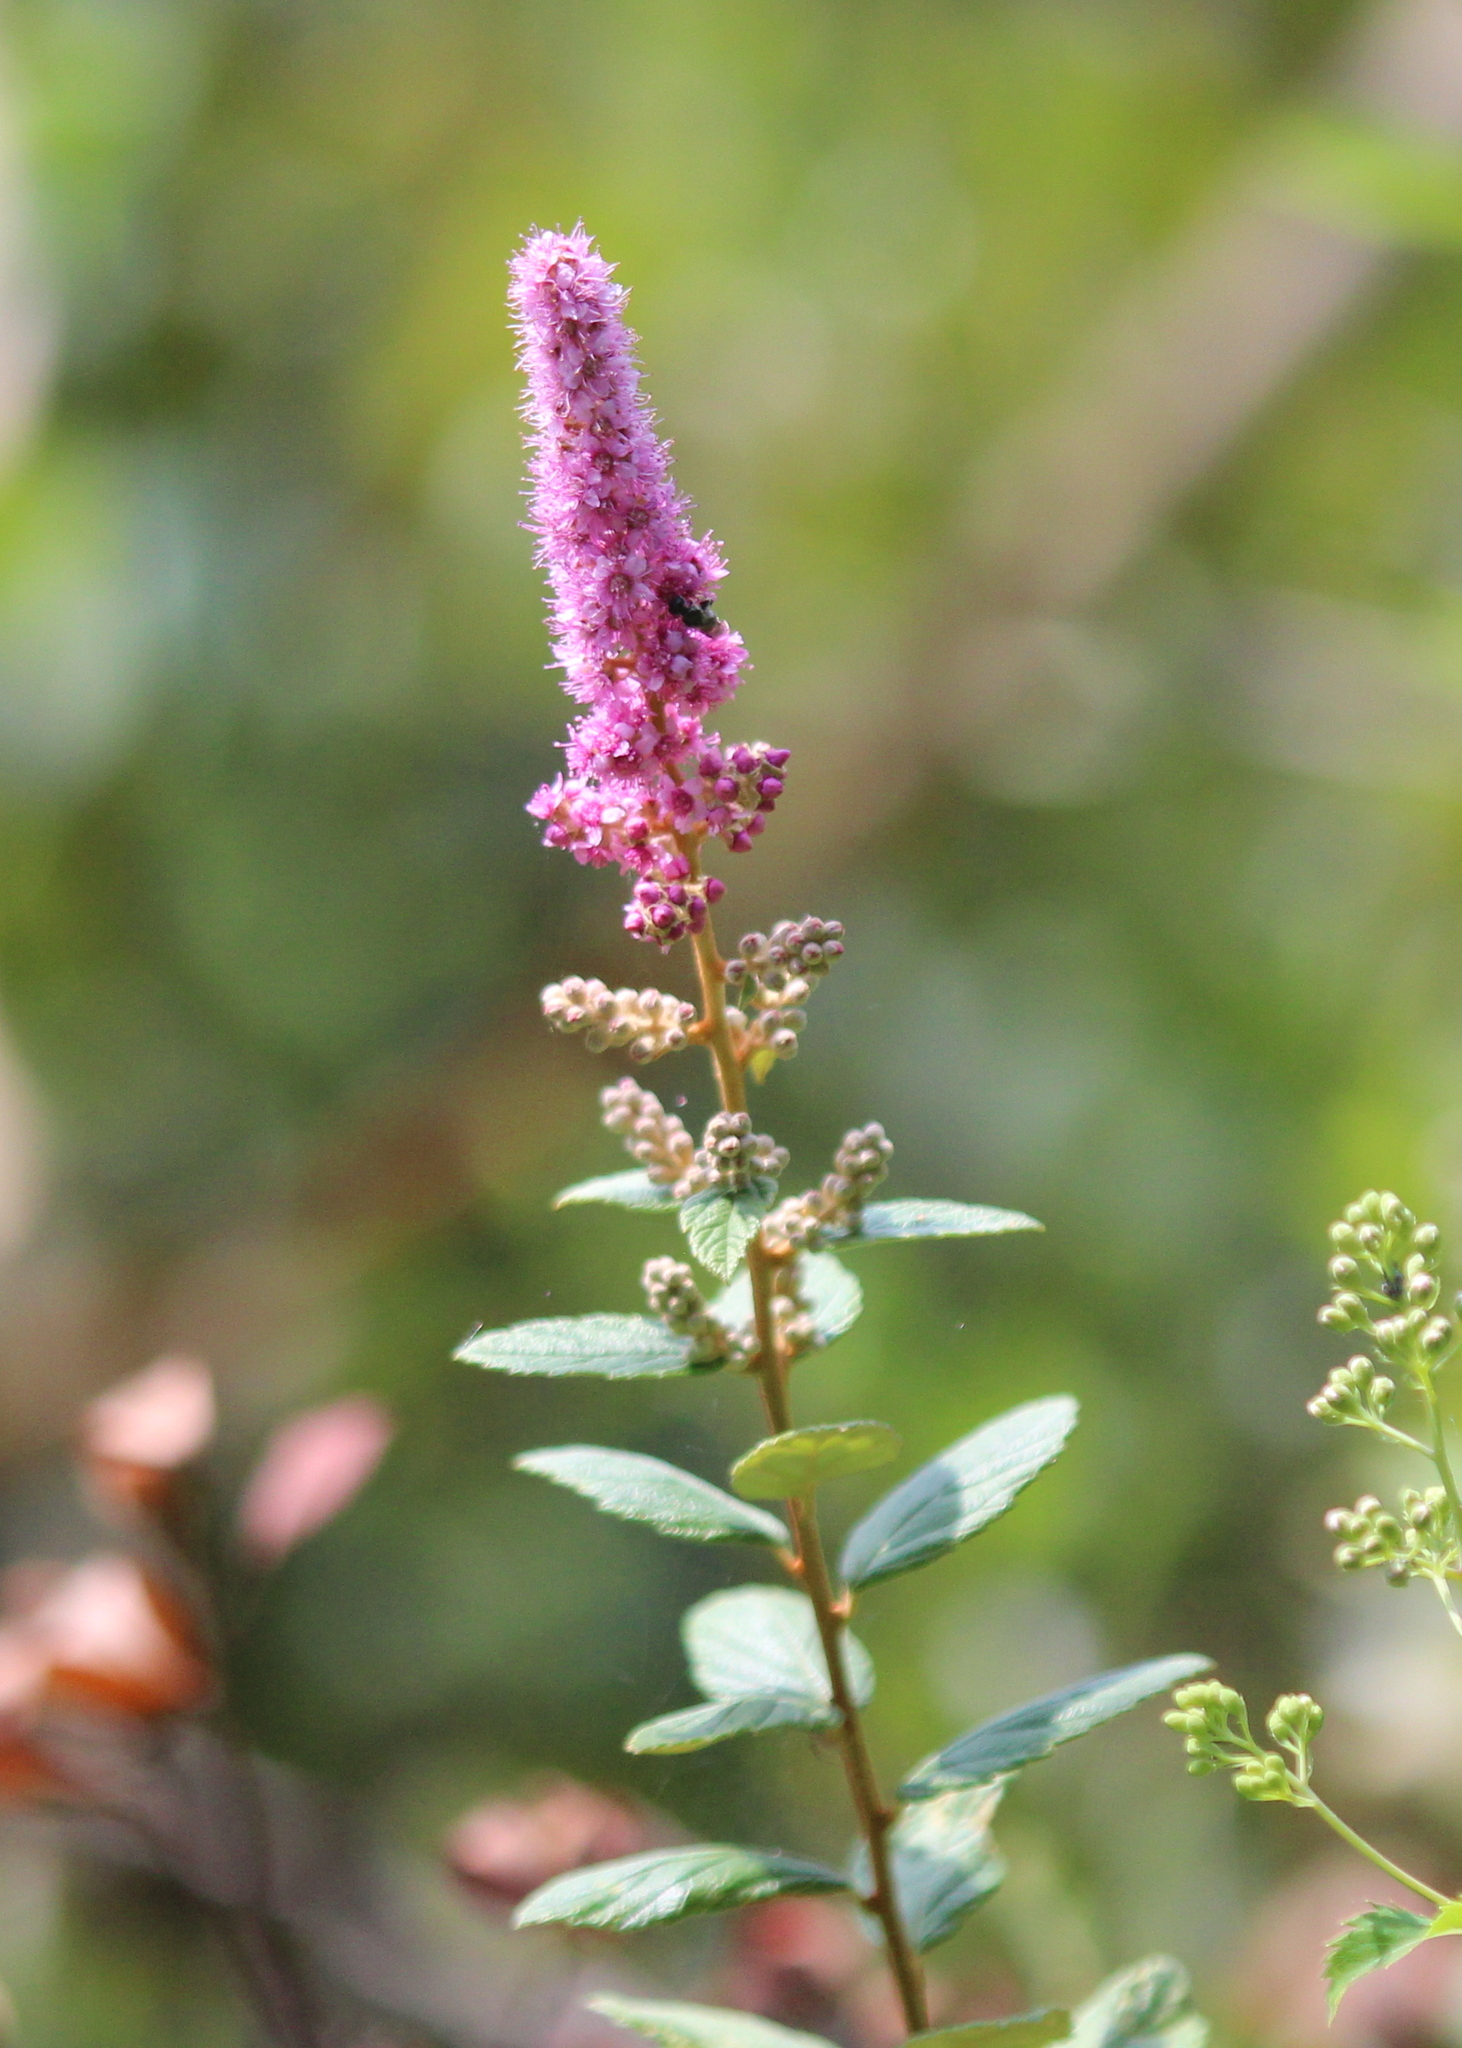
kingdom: Plantae
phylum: Tracheophyta
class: Magnoliopsida
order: Rosales
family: Rosaceae
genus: Spiraea
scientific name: Spiraea tomentosa
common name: Hardhack
